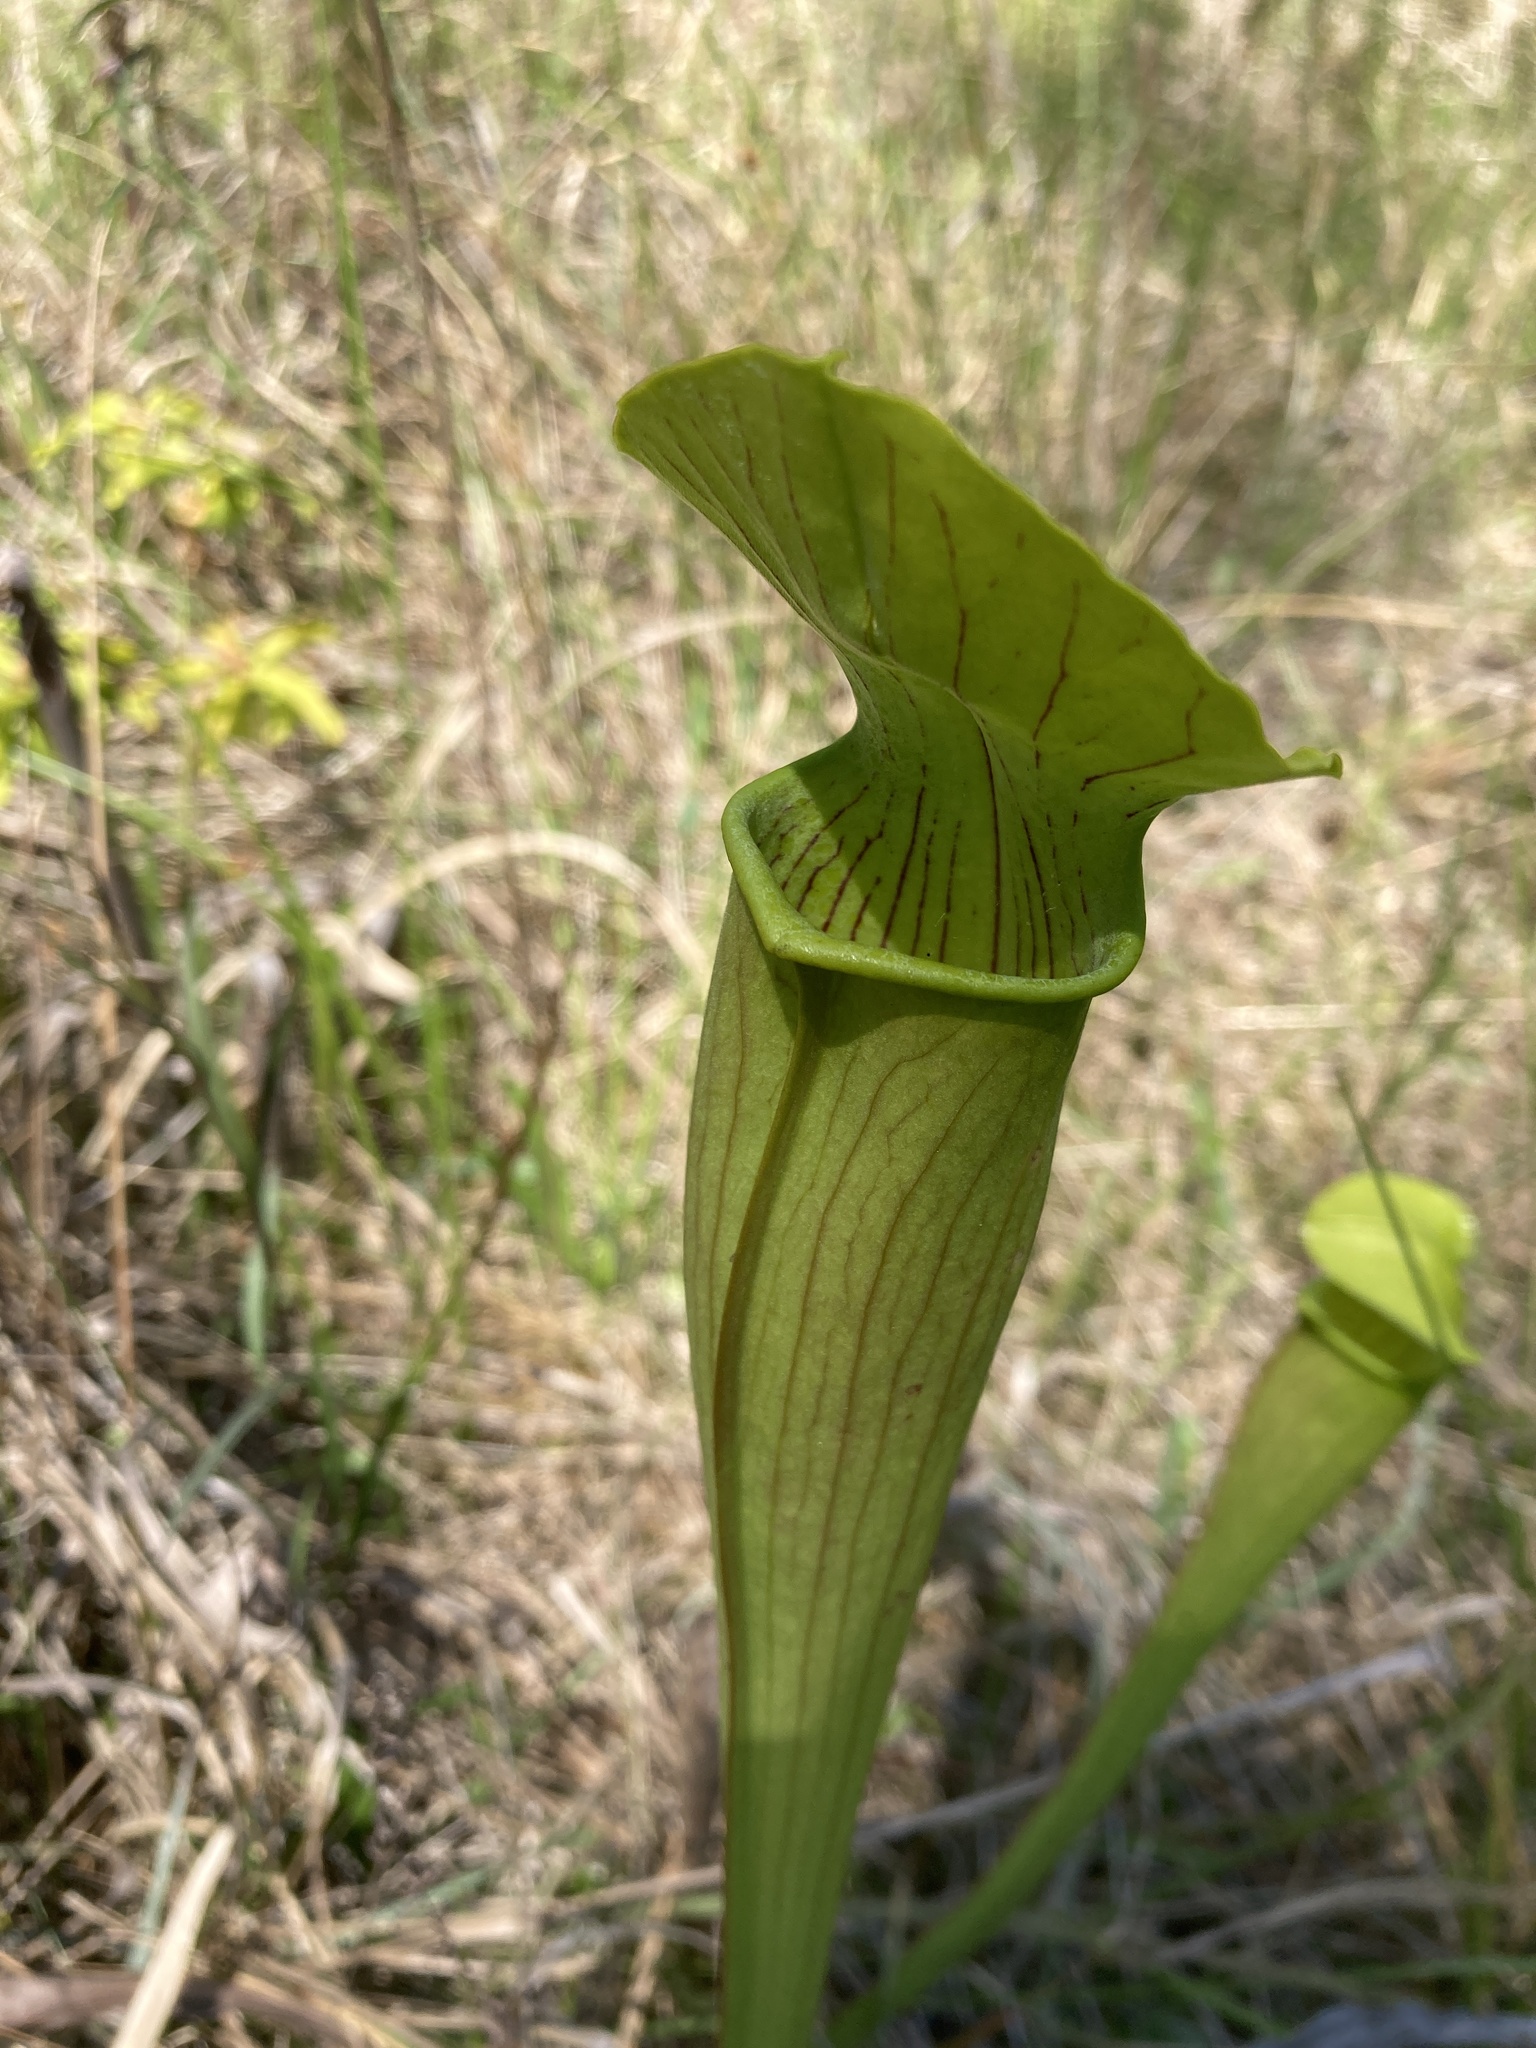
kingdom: Plantae
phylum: Tracheophyta
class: Magnoliopsida
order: Ericales
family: Sarraceniaceae
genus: Sarracenia
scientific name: Sarracenia alata
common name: Yellow trumpets
